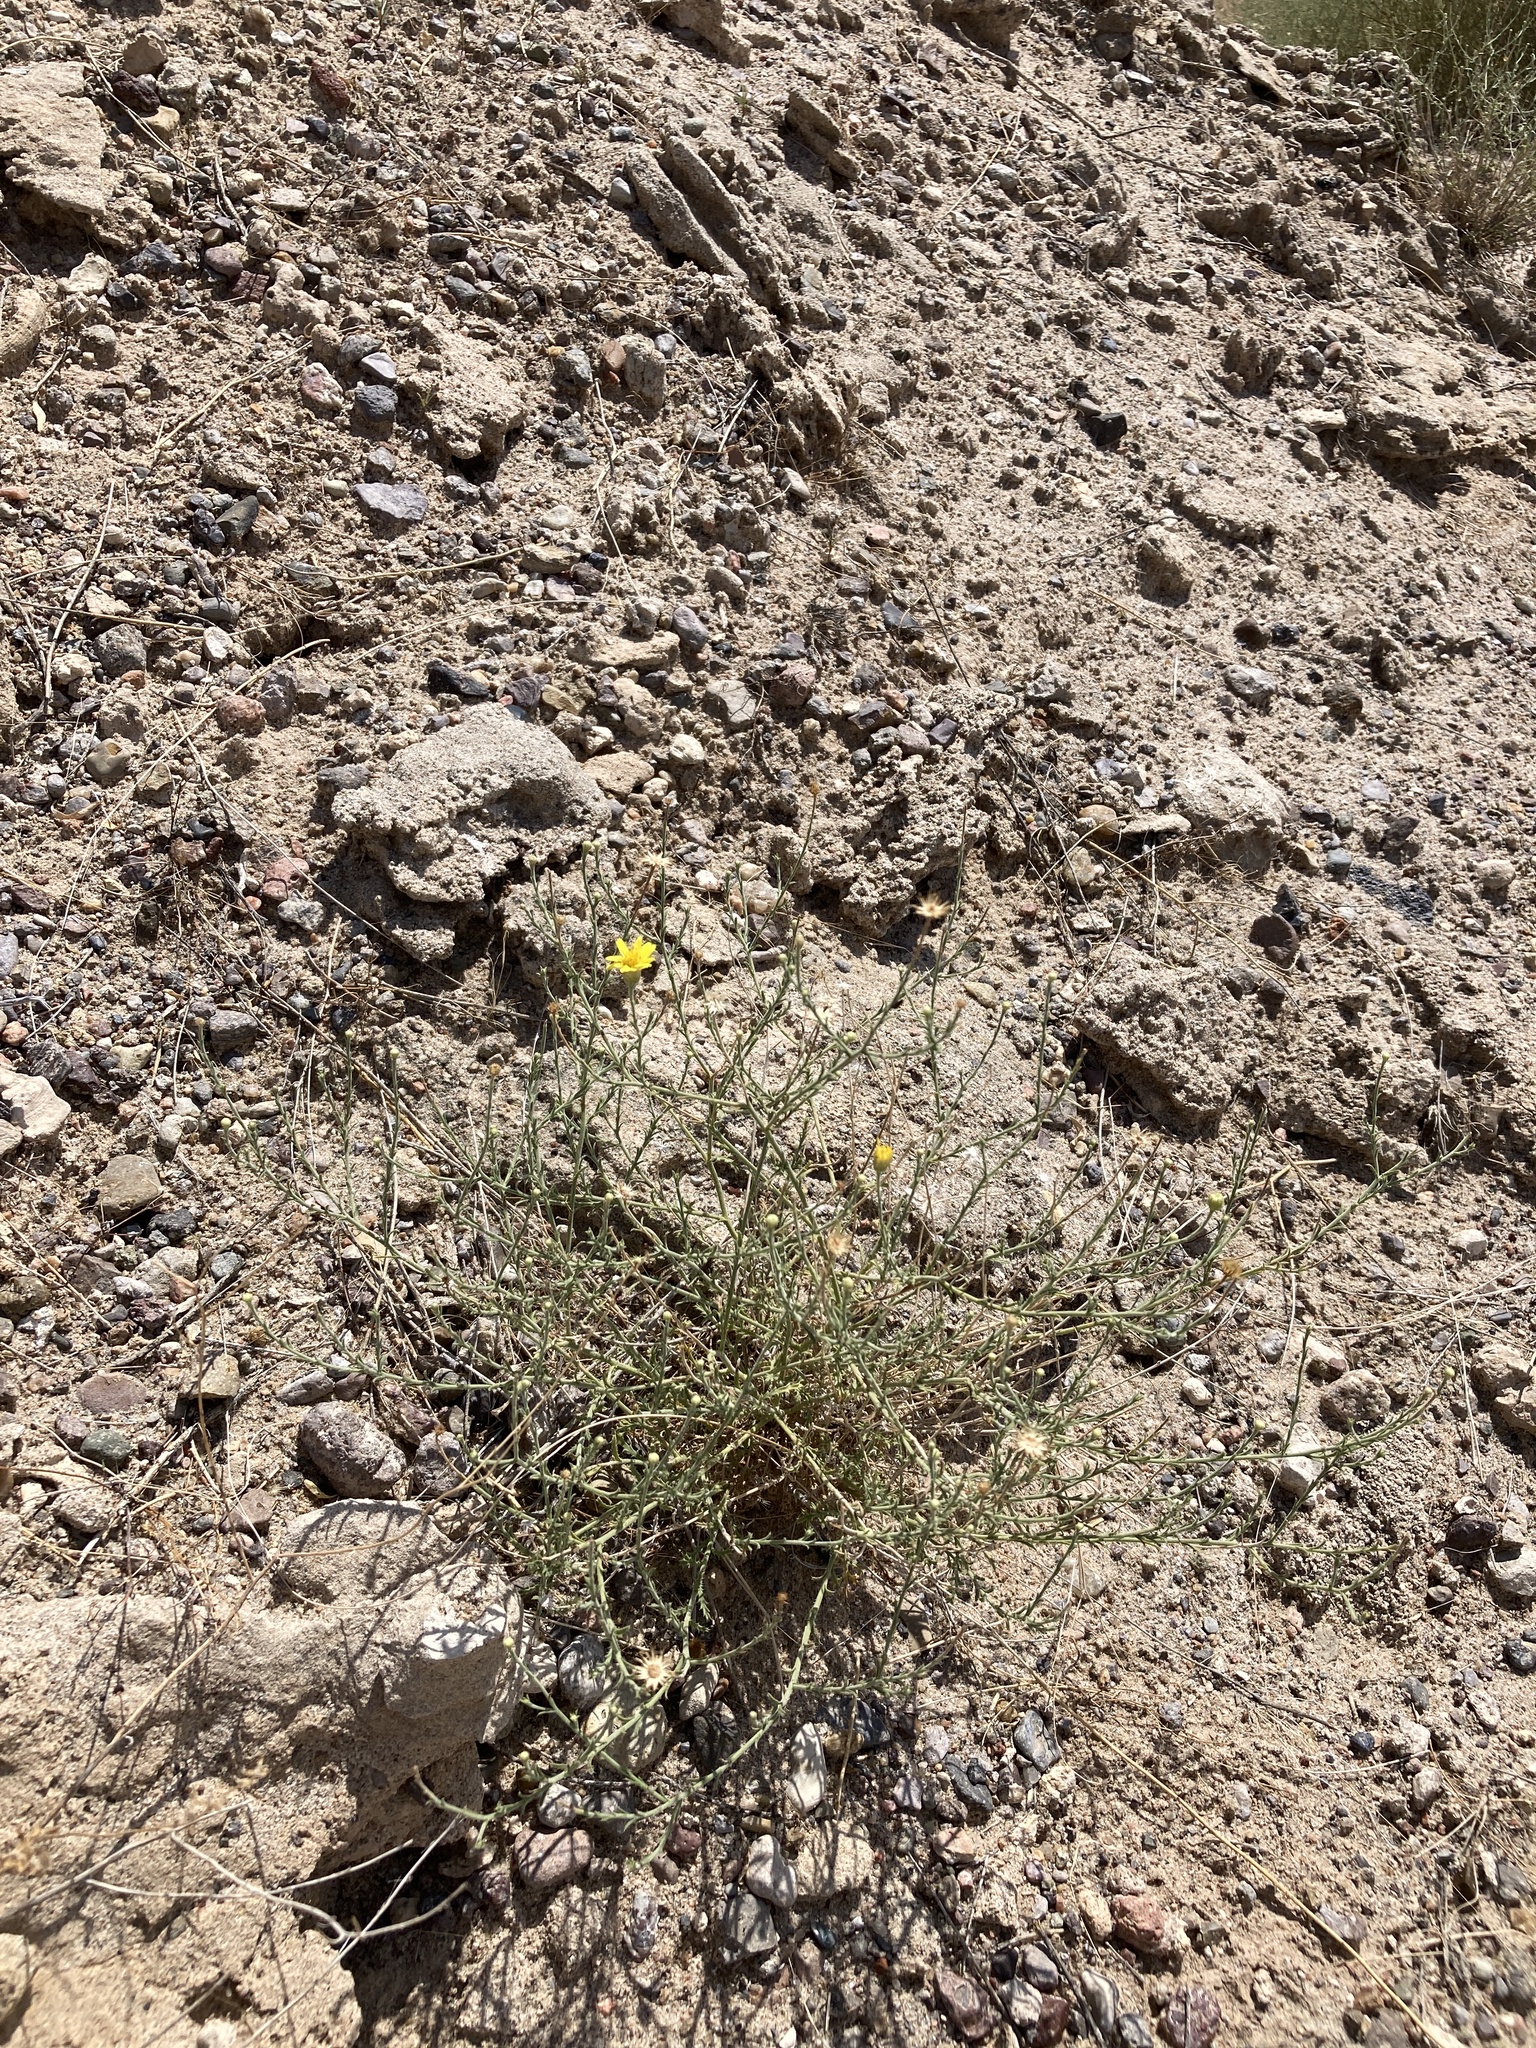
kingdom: Plantae
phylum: Tracheophyta
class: Magnoliopsida
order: Asterales
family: Asteraceae
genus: Xanthisma
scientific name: Xanthisma spinulosum
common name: Spiny goldenweed
